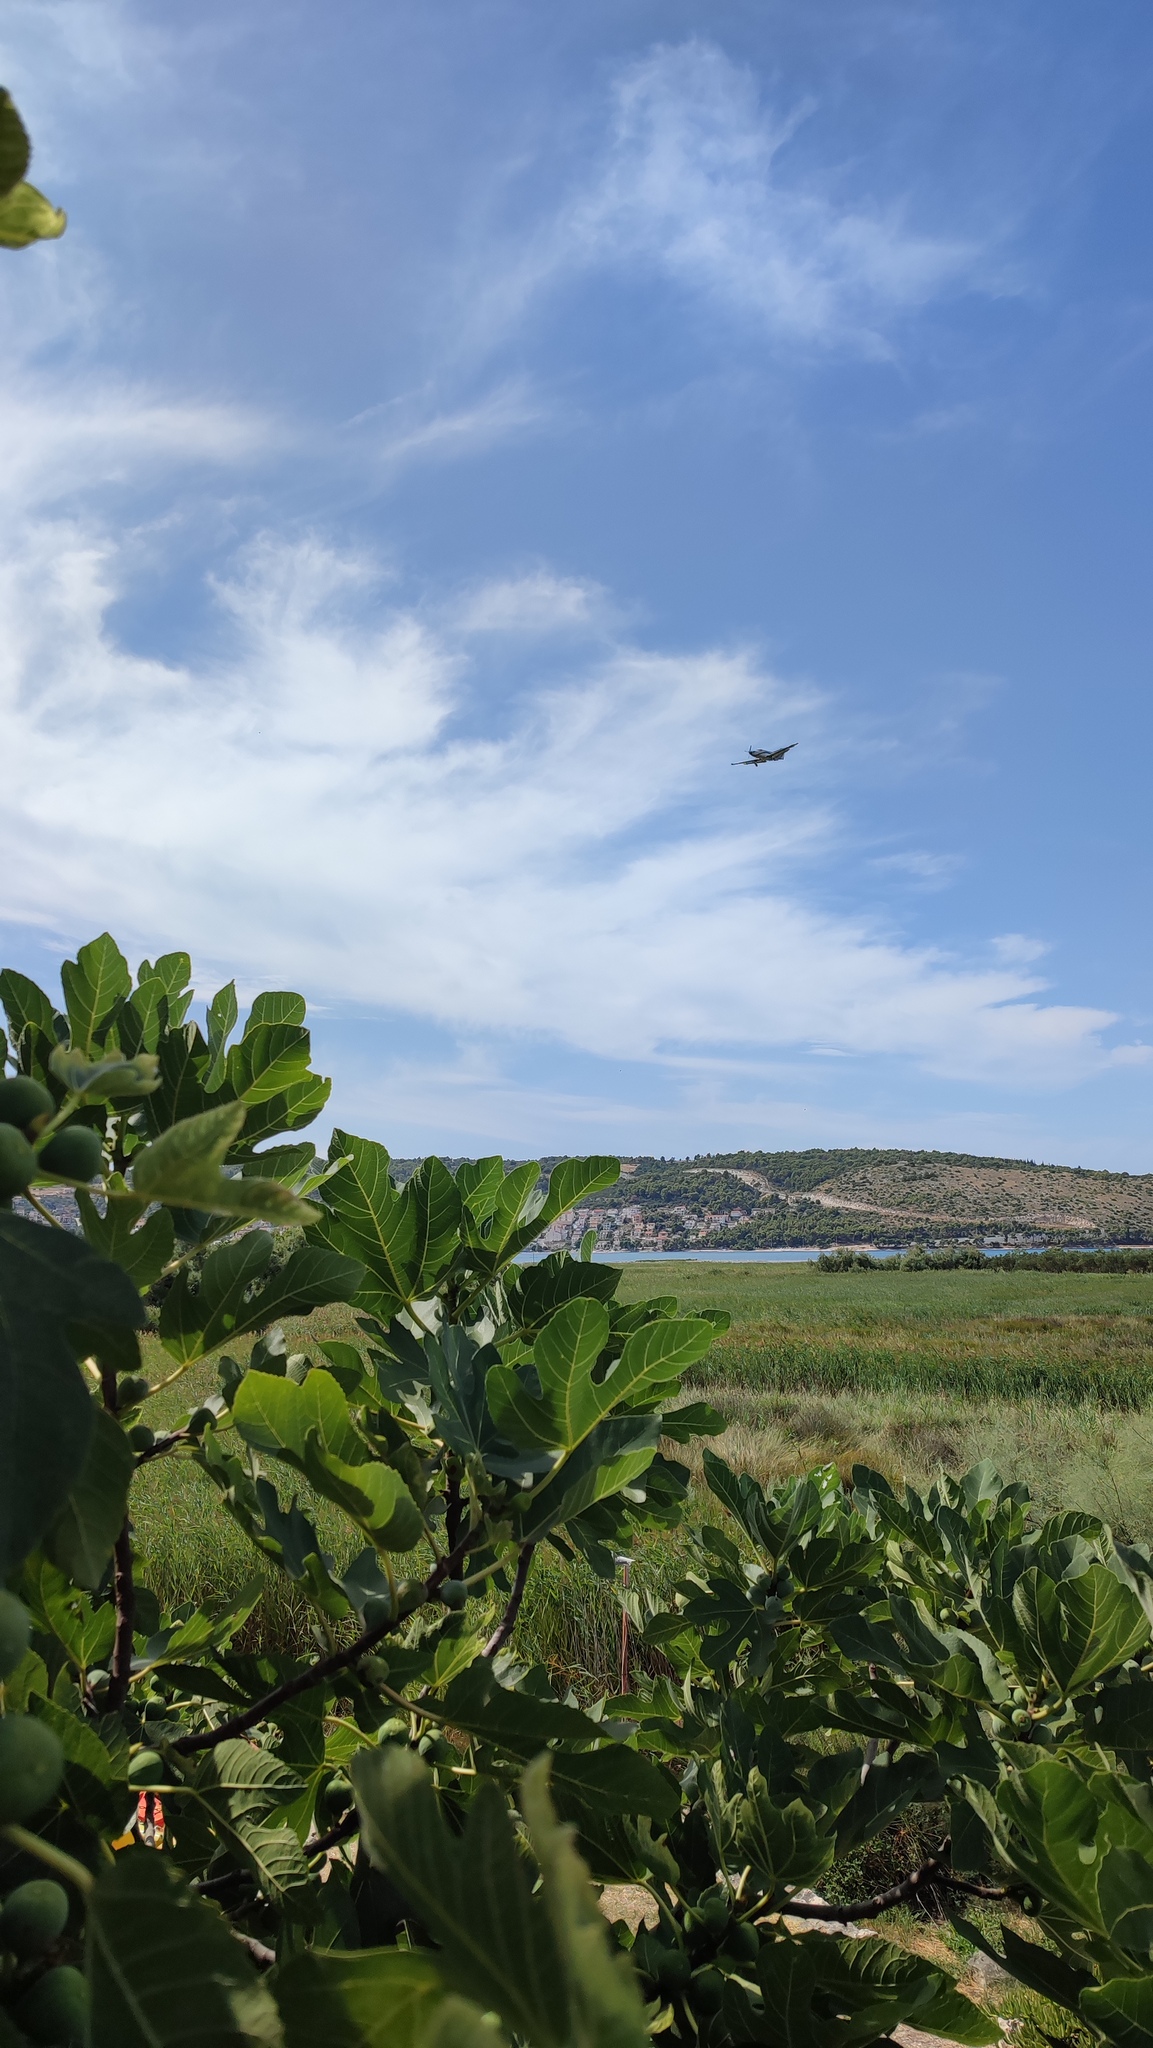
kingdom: Plantae
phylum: Tracheophyta
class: Magnoliopsida
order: Rosales
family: Moraceae
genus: Ficus
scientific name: Ficus carica
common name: Fig
